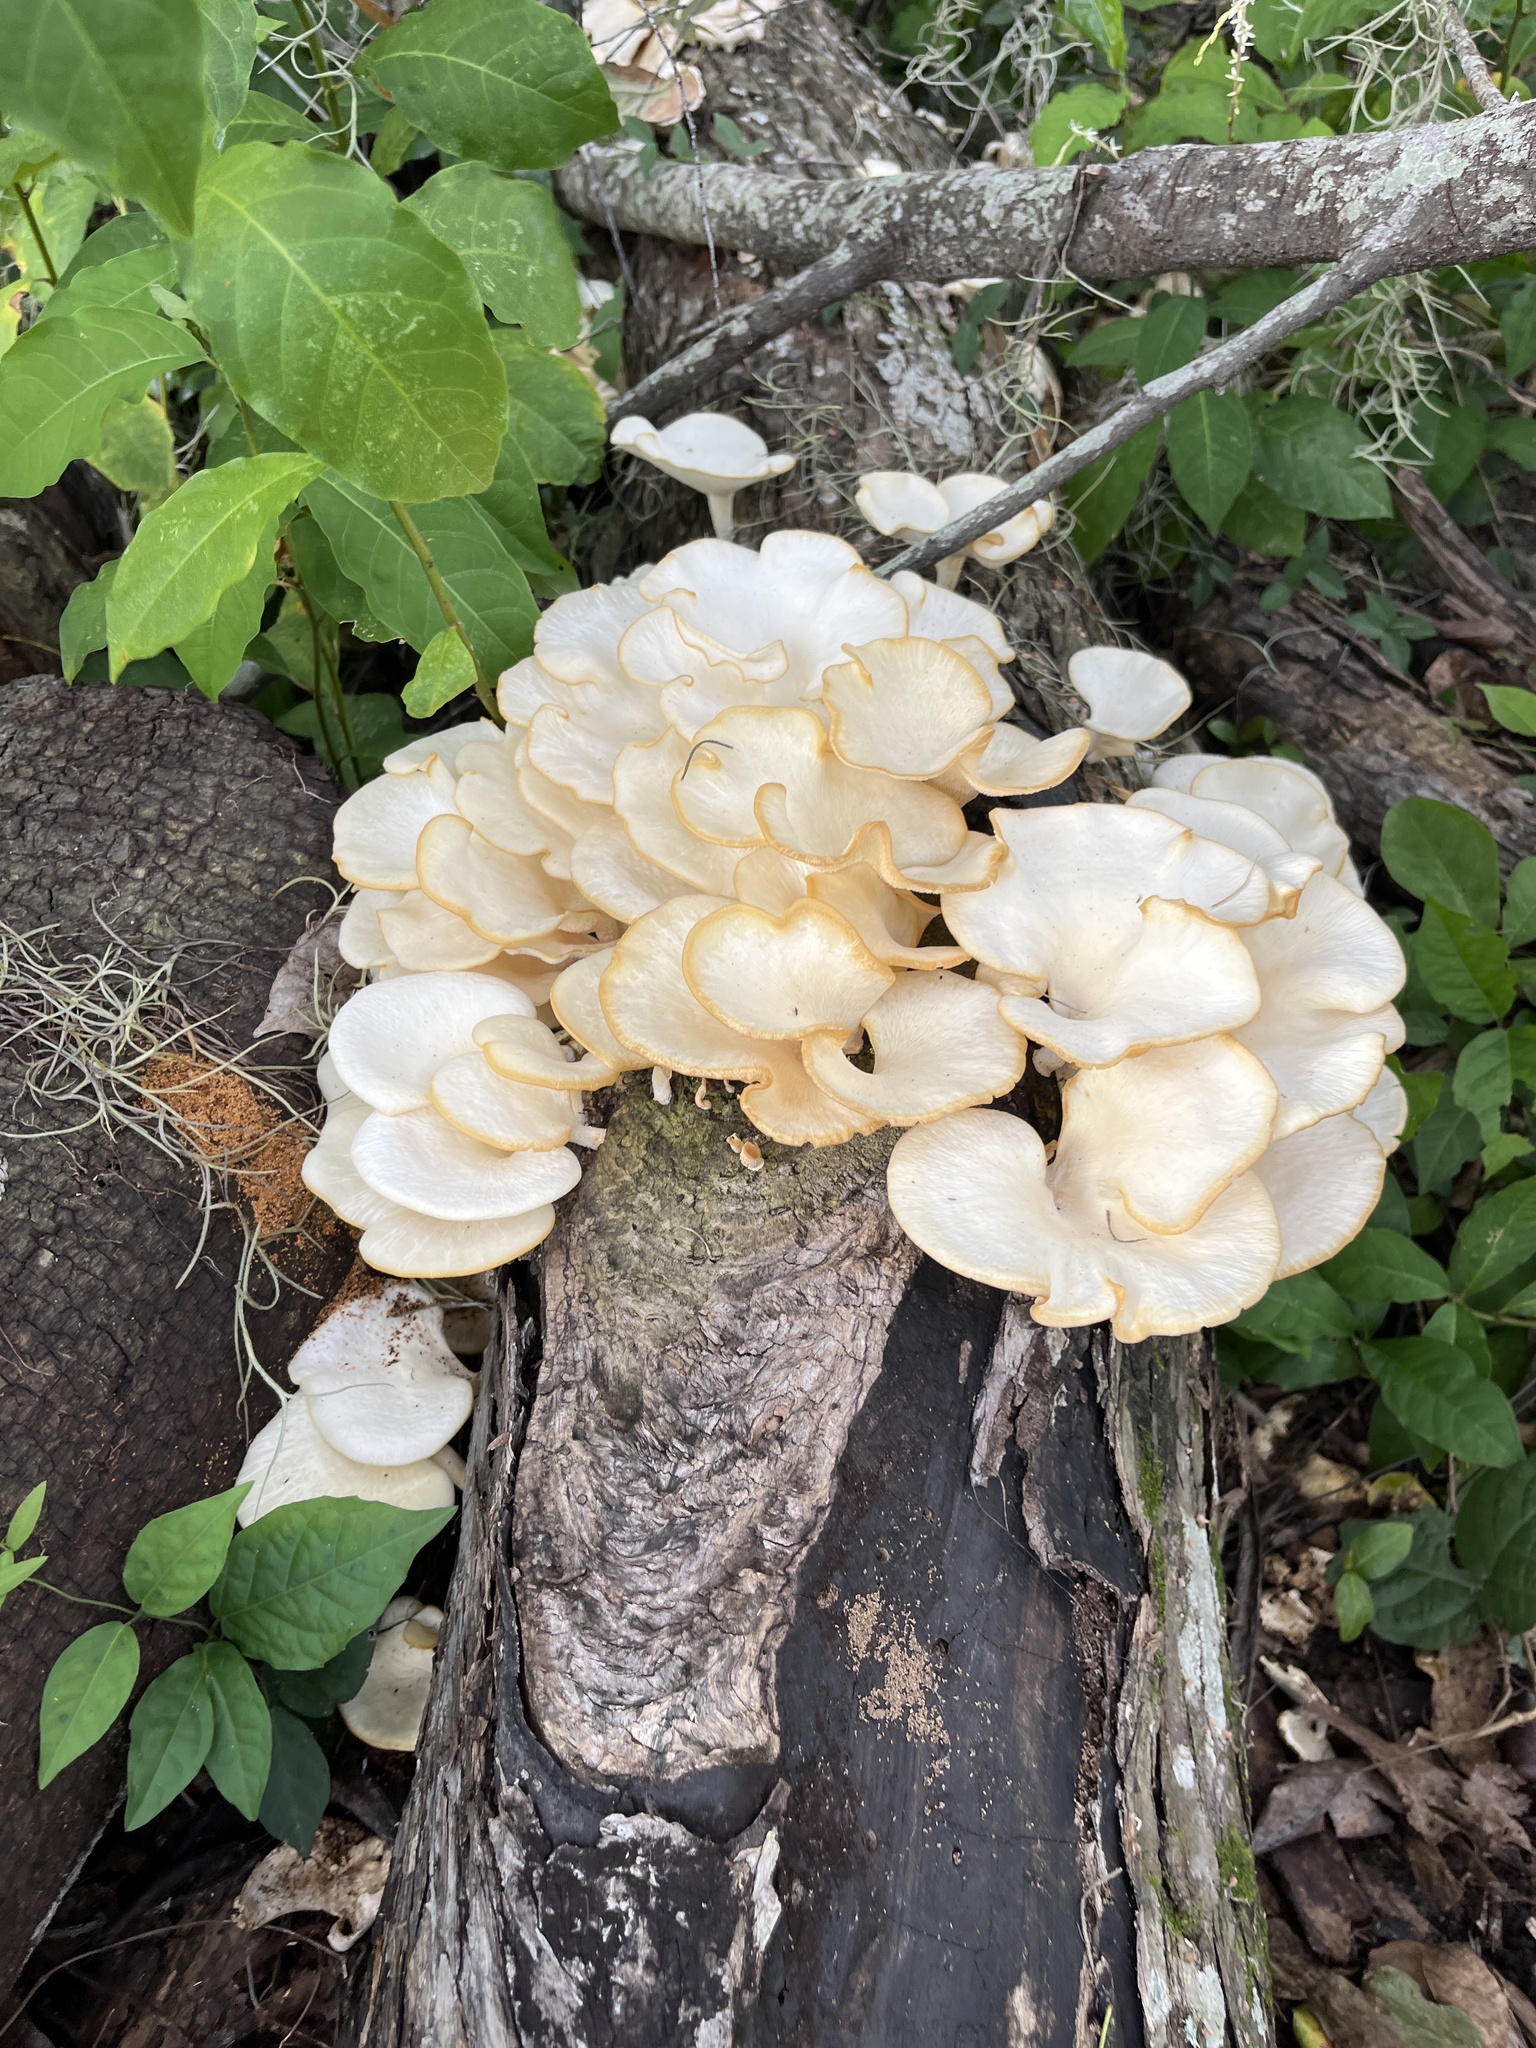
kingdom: Fungi
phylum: Basidiomycota
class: Agaricomycetes
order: Polyporales
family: Polyporaceae
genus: Favolus
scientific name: Favolus tenuiculus
